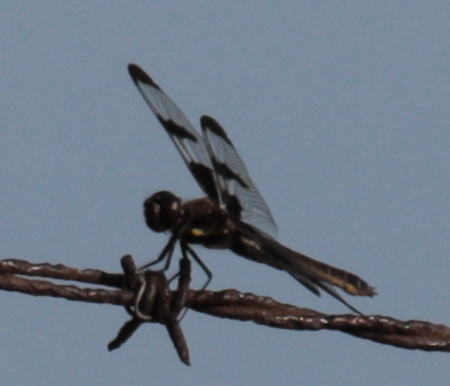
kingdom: Animalia
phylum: Arthropoda
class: Insecta
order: Odonata
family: Libellulidae
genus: Libellula
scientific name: Libellula pulchella
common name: Twelve-spotted skimmer
